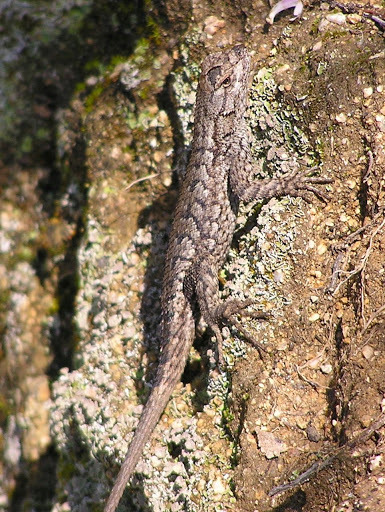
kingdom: Animalia
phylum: Chordata
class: Squamata
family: Phrynosomatidae
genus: Sceloporus
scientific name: Sceloporus occidentalis
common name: Western fence lizard
